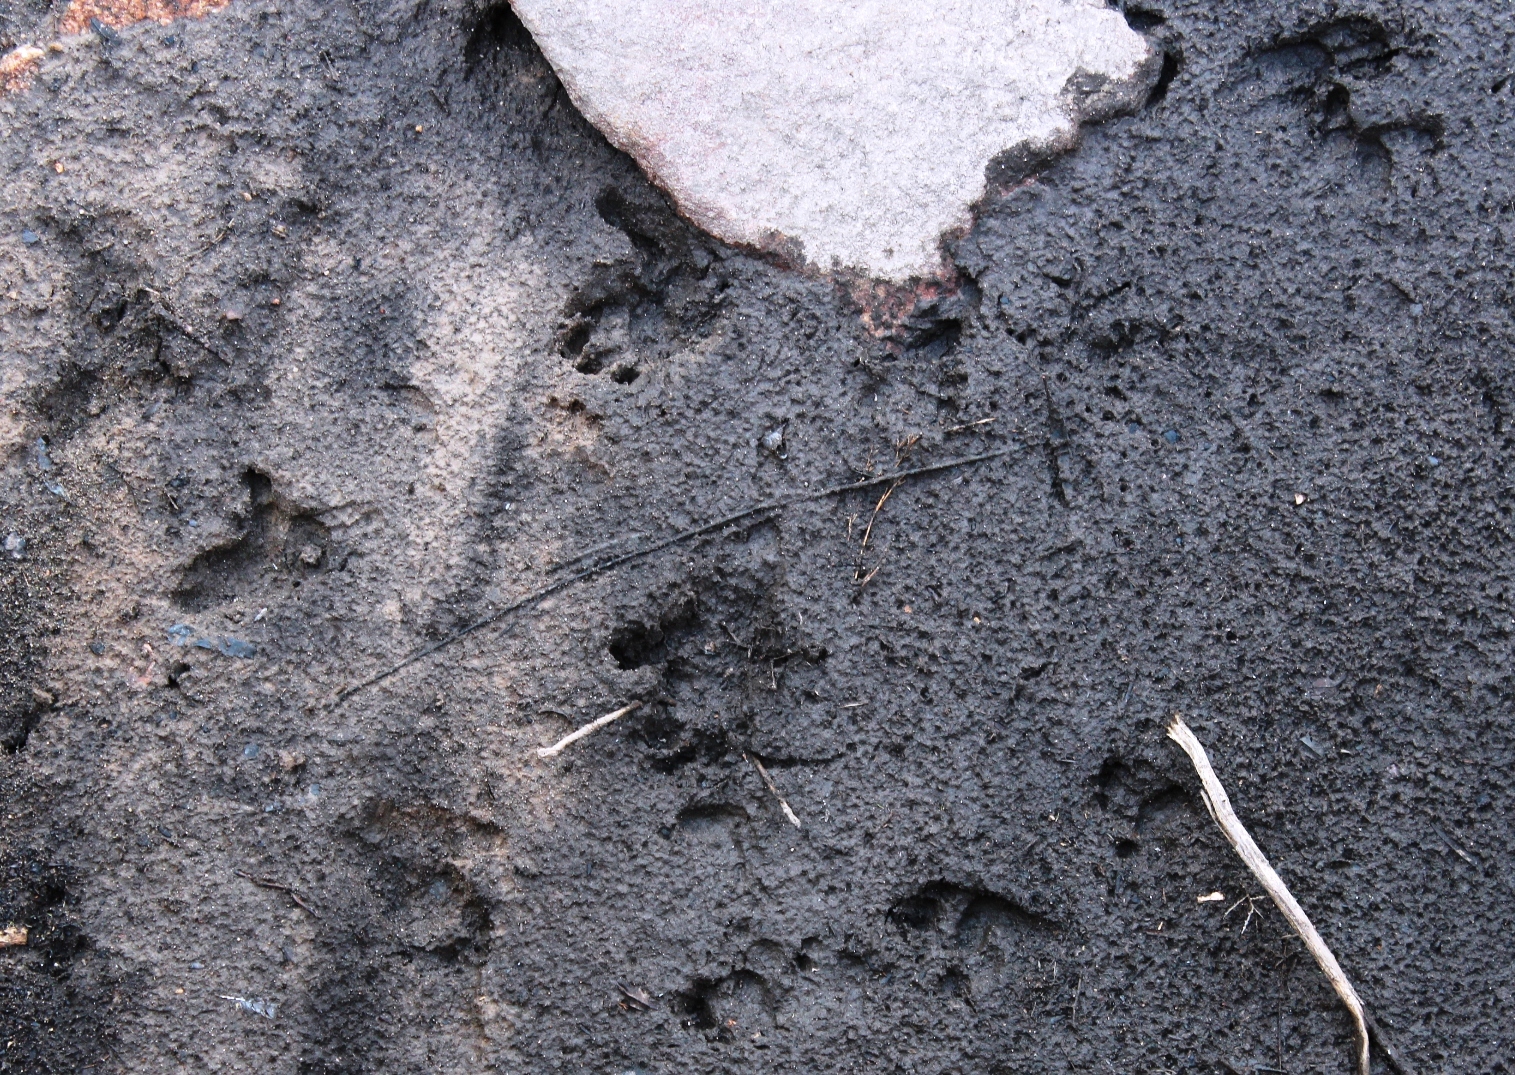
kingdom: Animalia
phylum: Chordata
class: Mammalia
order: Primates
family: Cercopithecidae
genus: Papio
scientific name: Papio ursinus
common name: Chacma baboon
